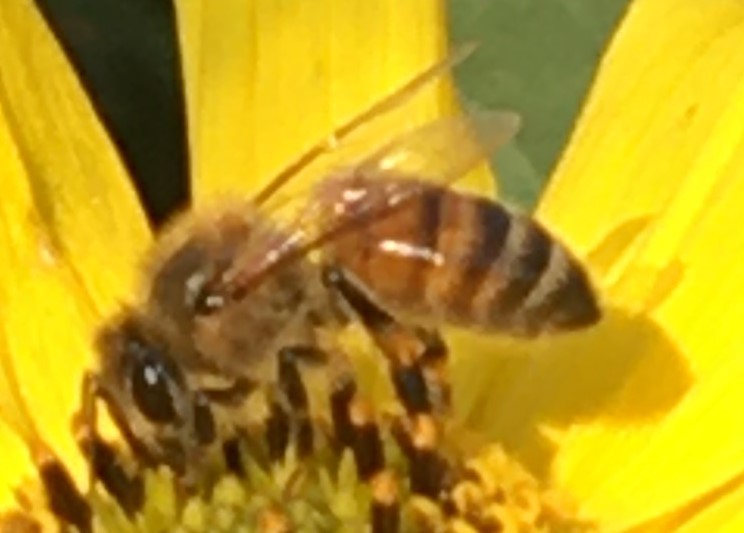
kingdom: Animalia
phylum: Arthropoda
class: Insecta
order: Hymenoptera
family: Apidae
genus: Apis
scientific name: Apis mellifera
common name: Honey bee
